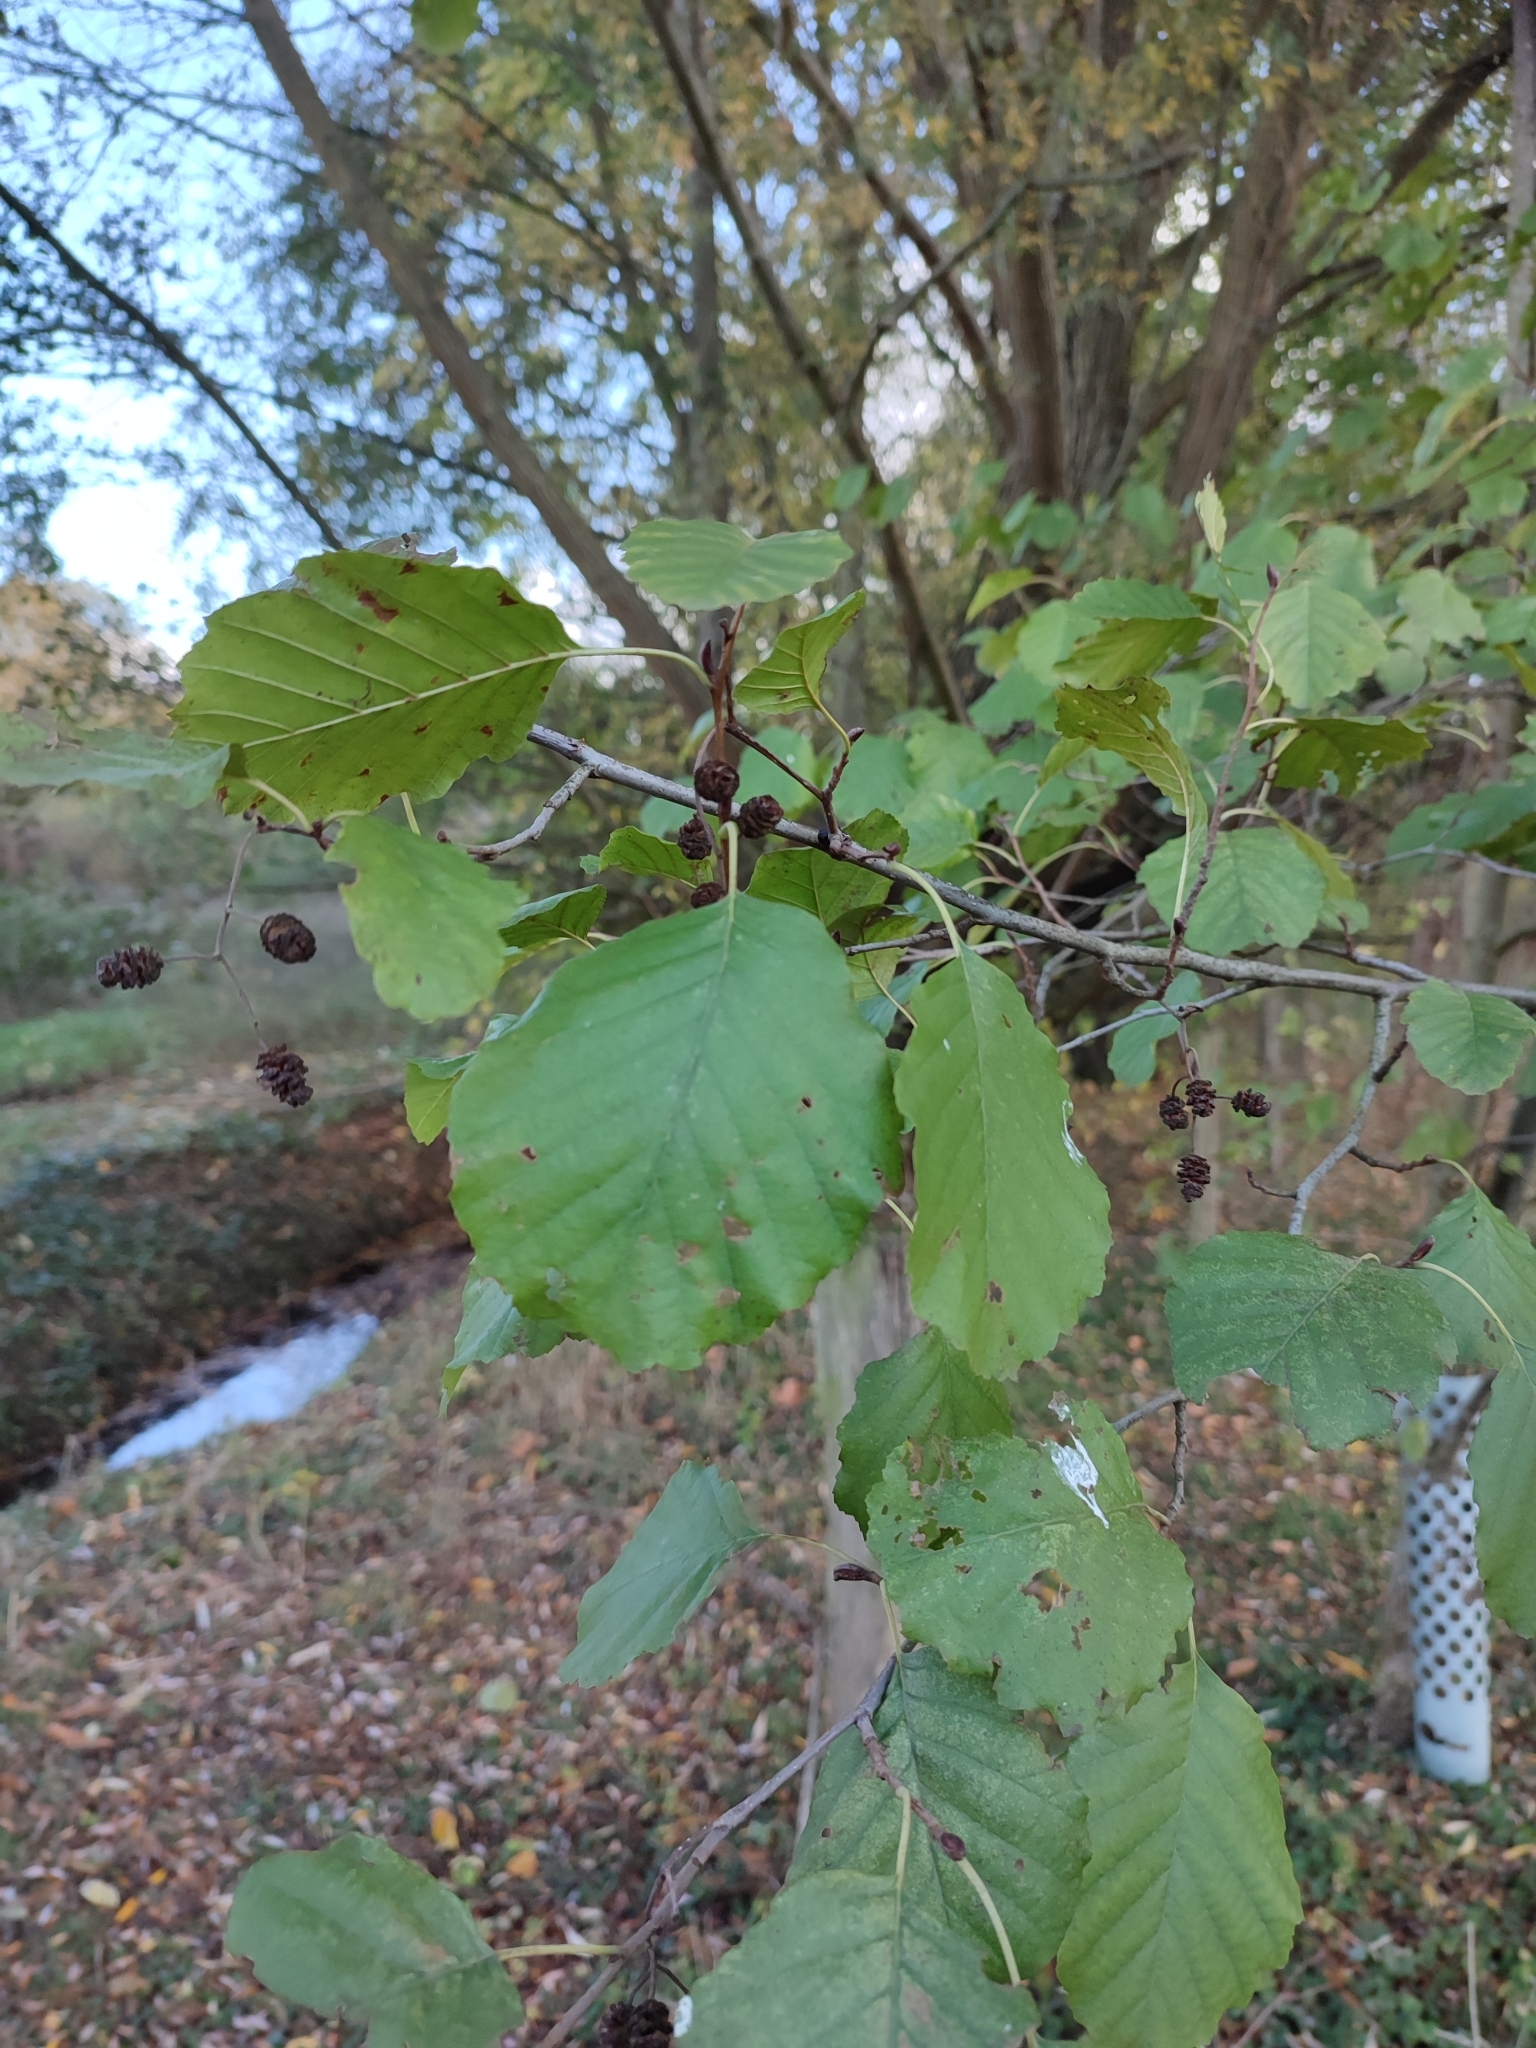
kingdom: Plantae
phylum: Tracheophyta
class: Magnoliopsida
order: Fagales
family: Betulaceae
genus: Alnus
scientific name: Alnus glutinosa
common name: Black alder
